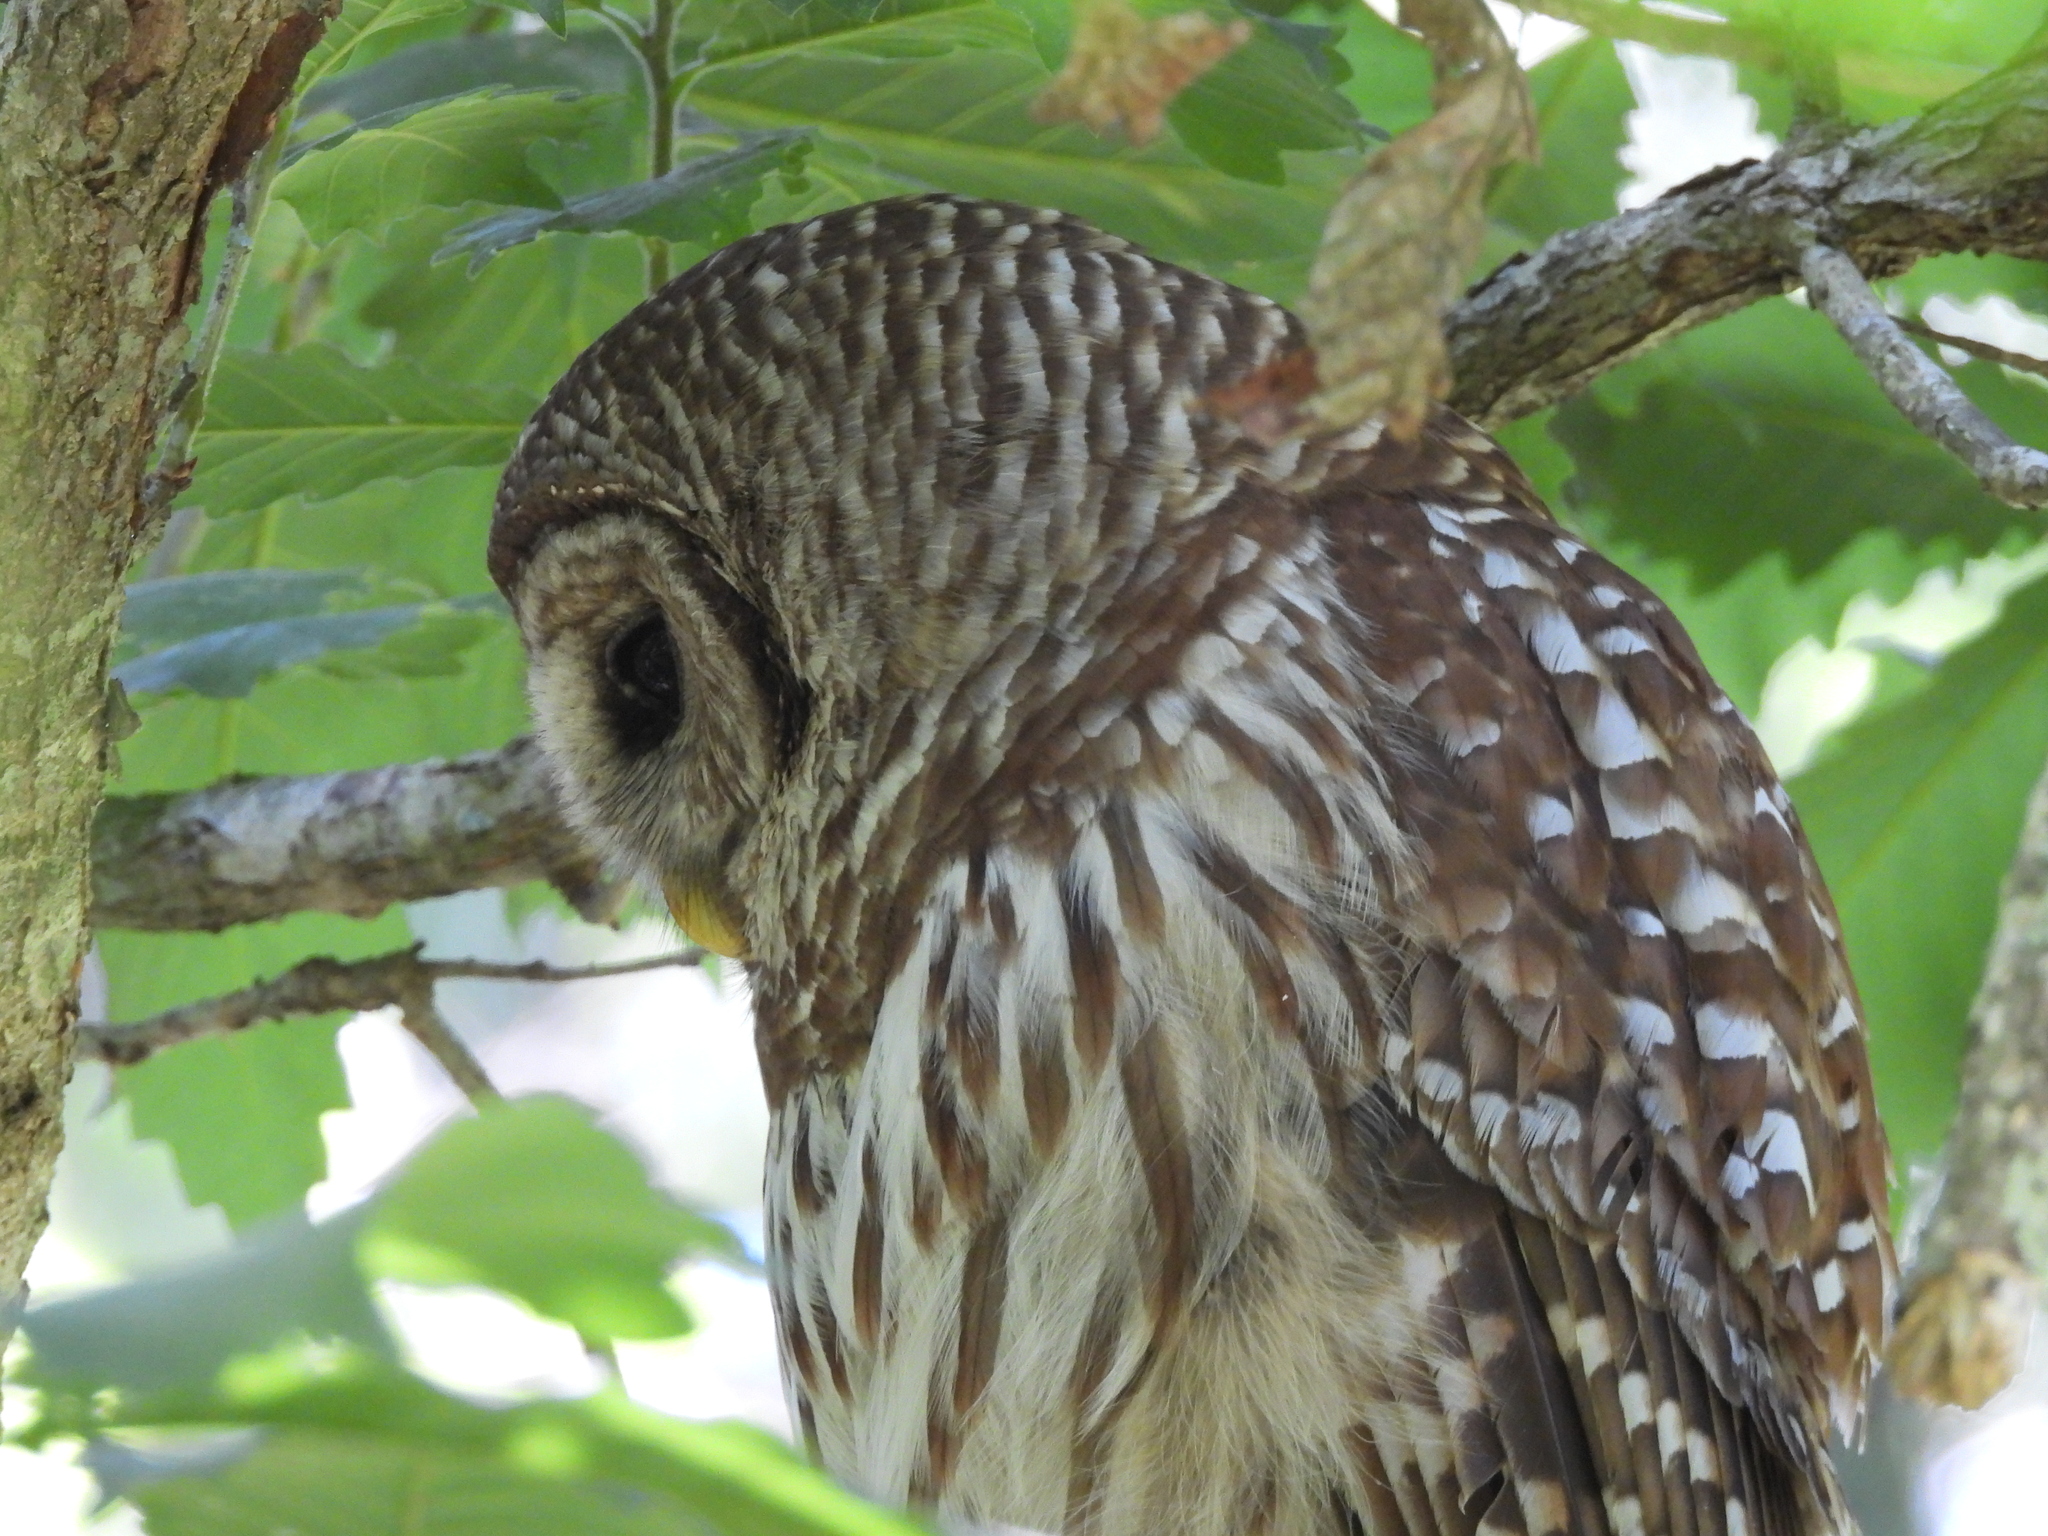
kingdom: Animalia
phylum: Chordata
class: Aves
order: Strigiformes
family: Strigidae
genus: Strix
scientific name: Strix varia
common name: Barred owl
